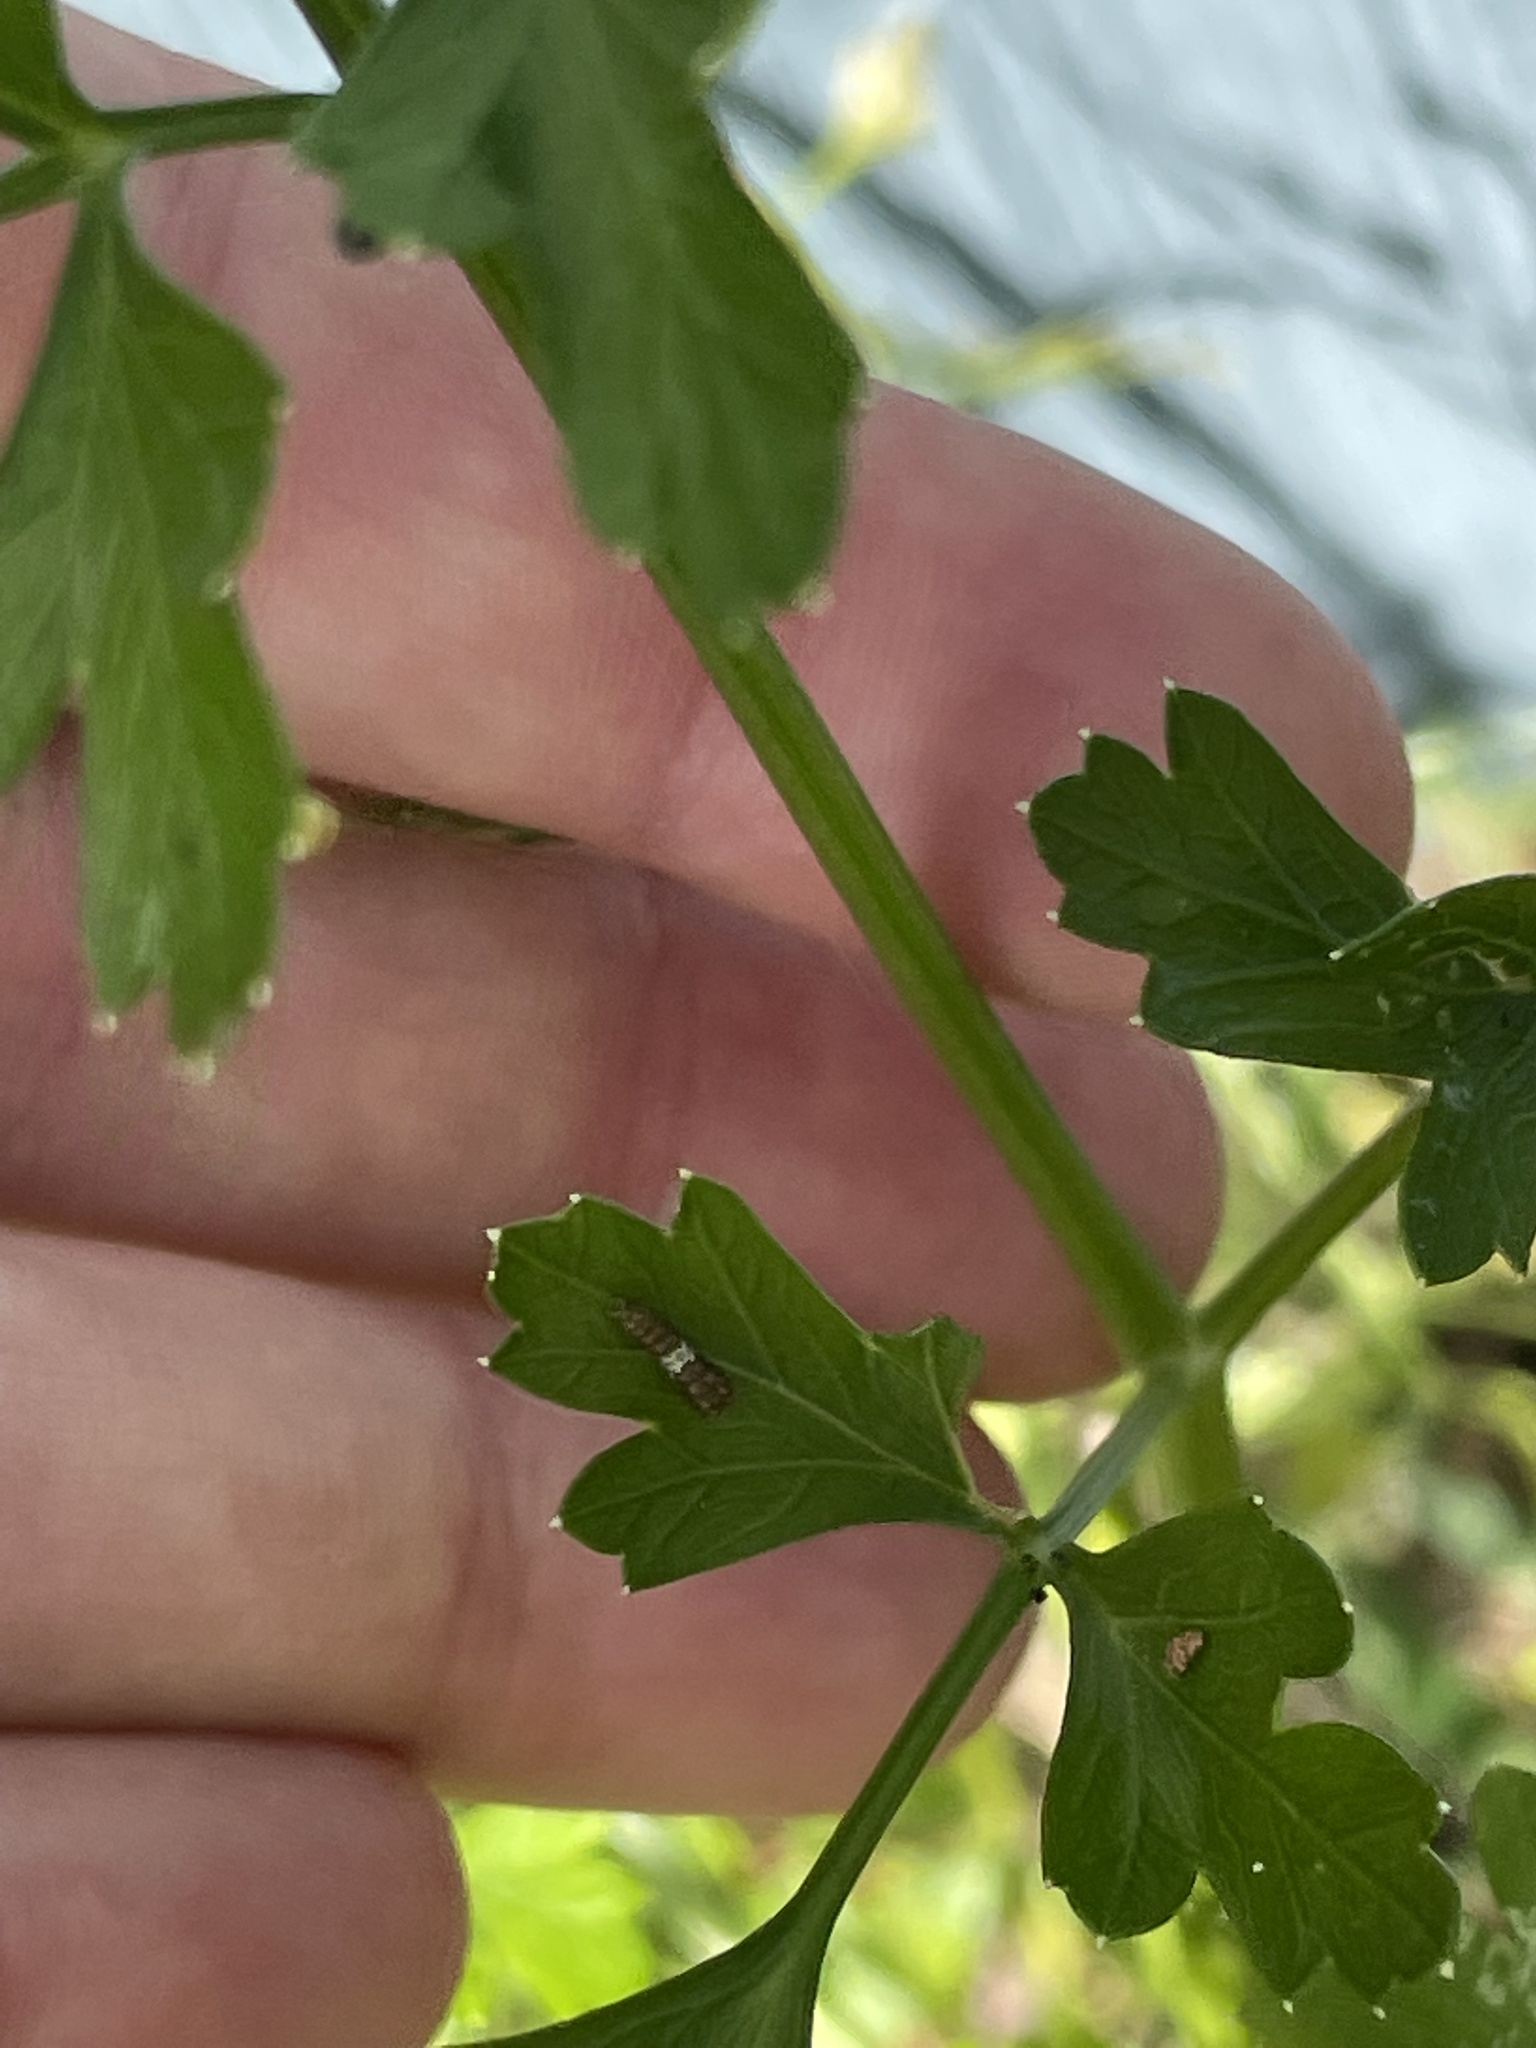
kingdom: Animalia
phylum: Arthropoda
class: Insecta
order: Lepidoptera
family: Papilionidae
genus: Papilio
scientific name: Papilio polyxenes
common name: Black swallowtail
